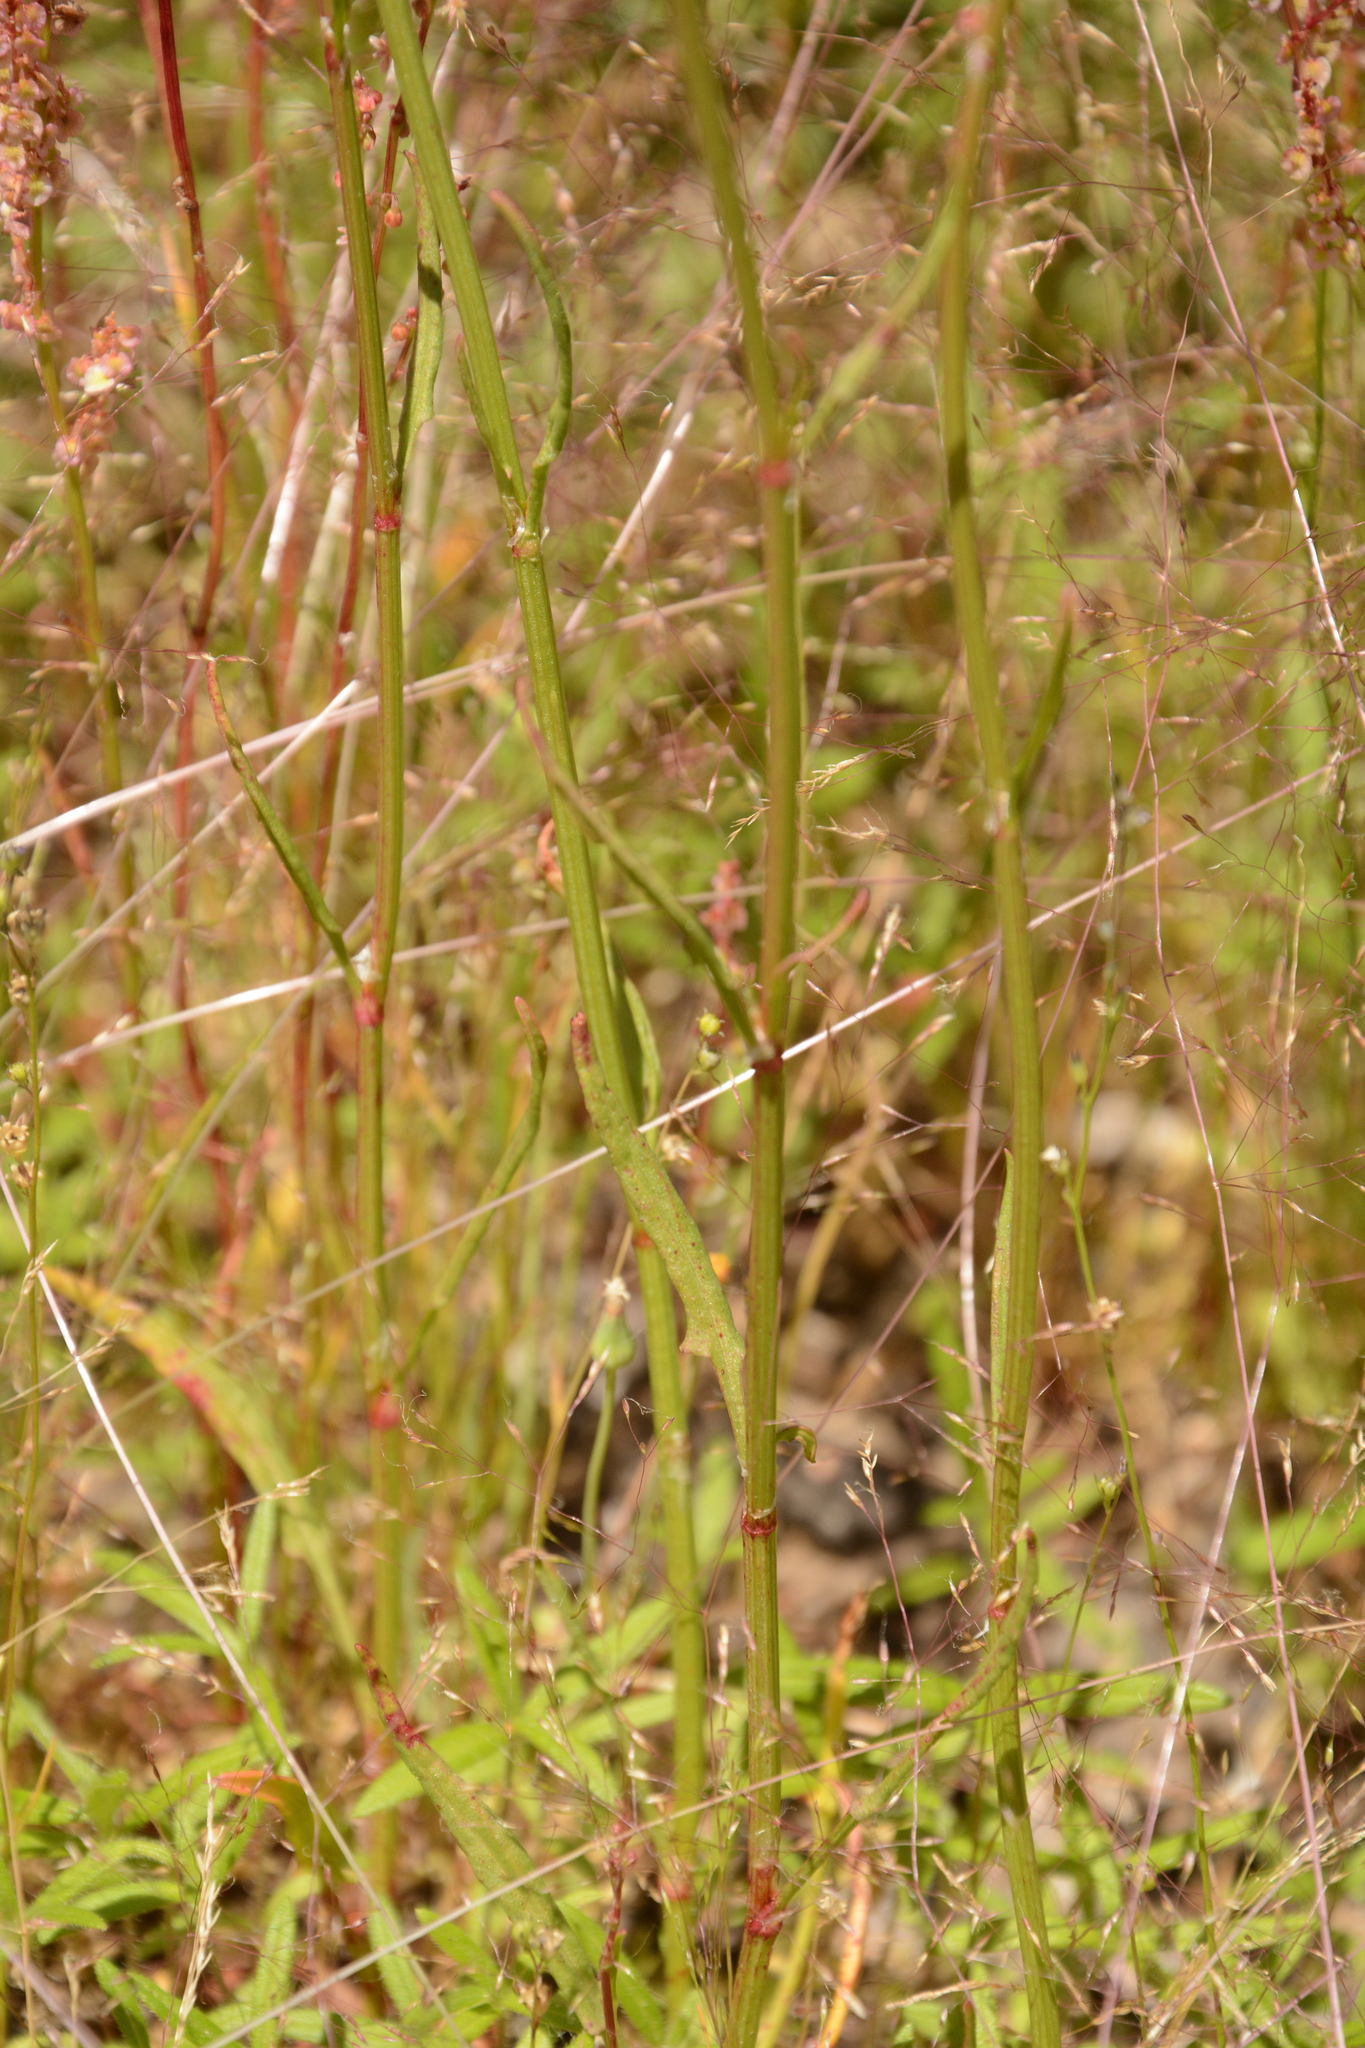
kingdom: Plantae
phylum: Tracheophyta
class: Magnoliopsida
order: Caryophyllales
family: Polygonaceae
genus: Rumex
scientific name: Rumex hastatulus
